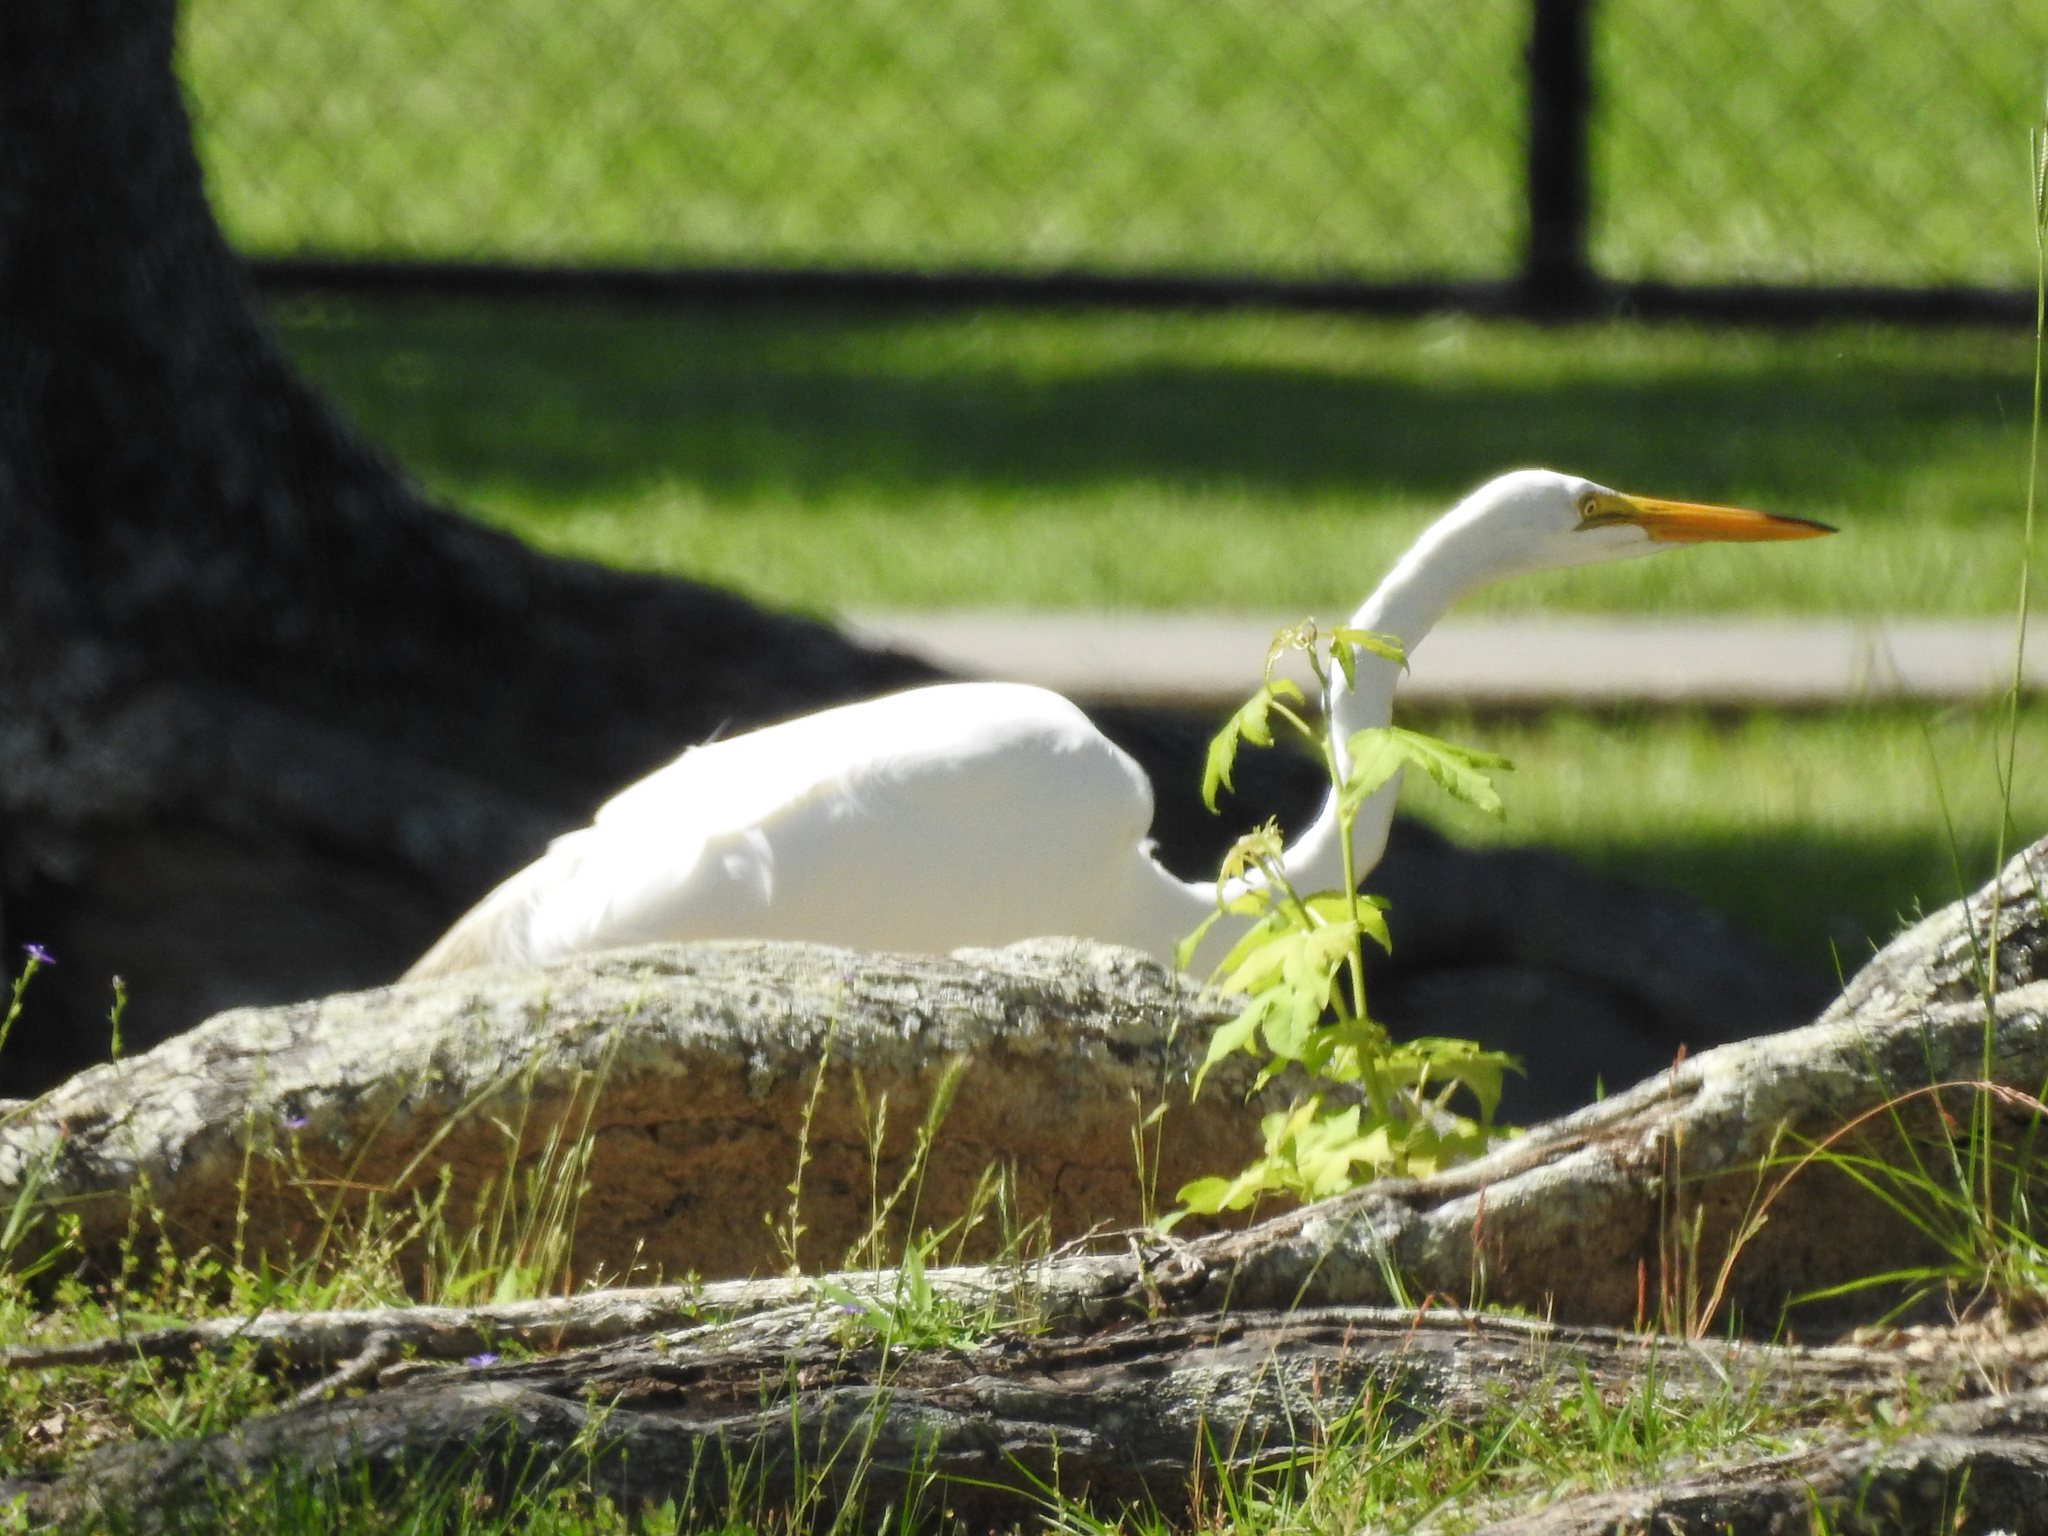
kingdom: Animalia
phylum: Chordata
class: Aves
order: Pelecaniformes
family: Ardeidae
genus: Ardea
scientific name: Ardea alba
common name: Great egret
